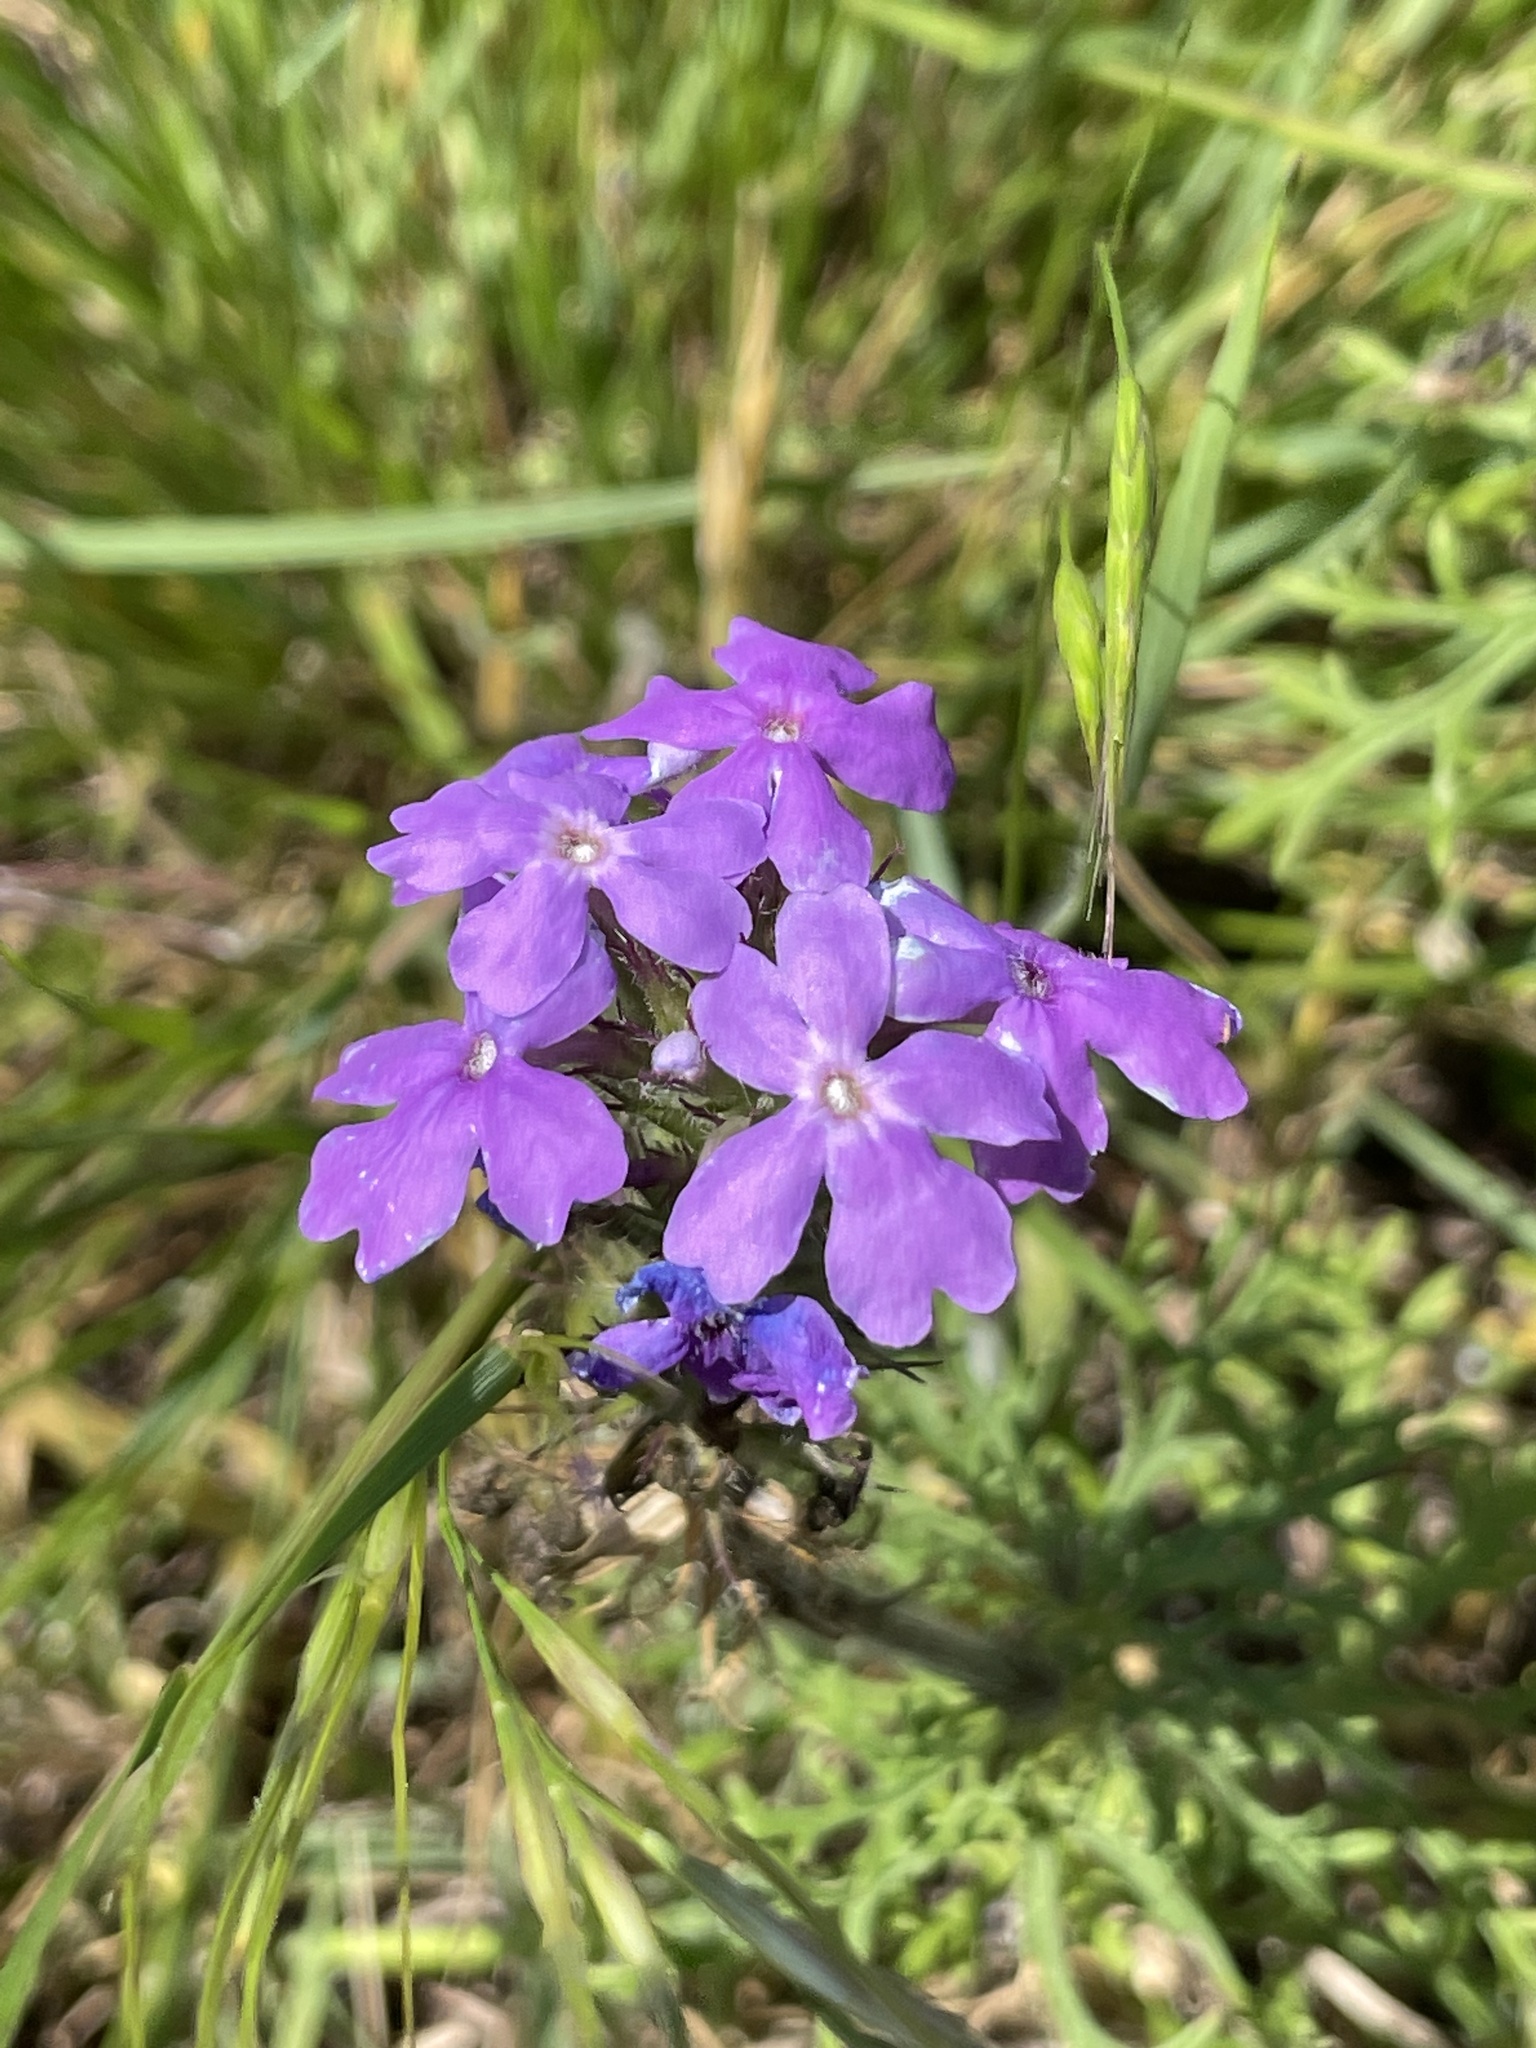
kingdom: Plantae
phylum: Tracheophyta
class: Magnoliopsida
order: Lamiales
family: Verbenaceae
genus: Verbena
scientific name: Verbena bipinnatifida
